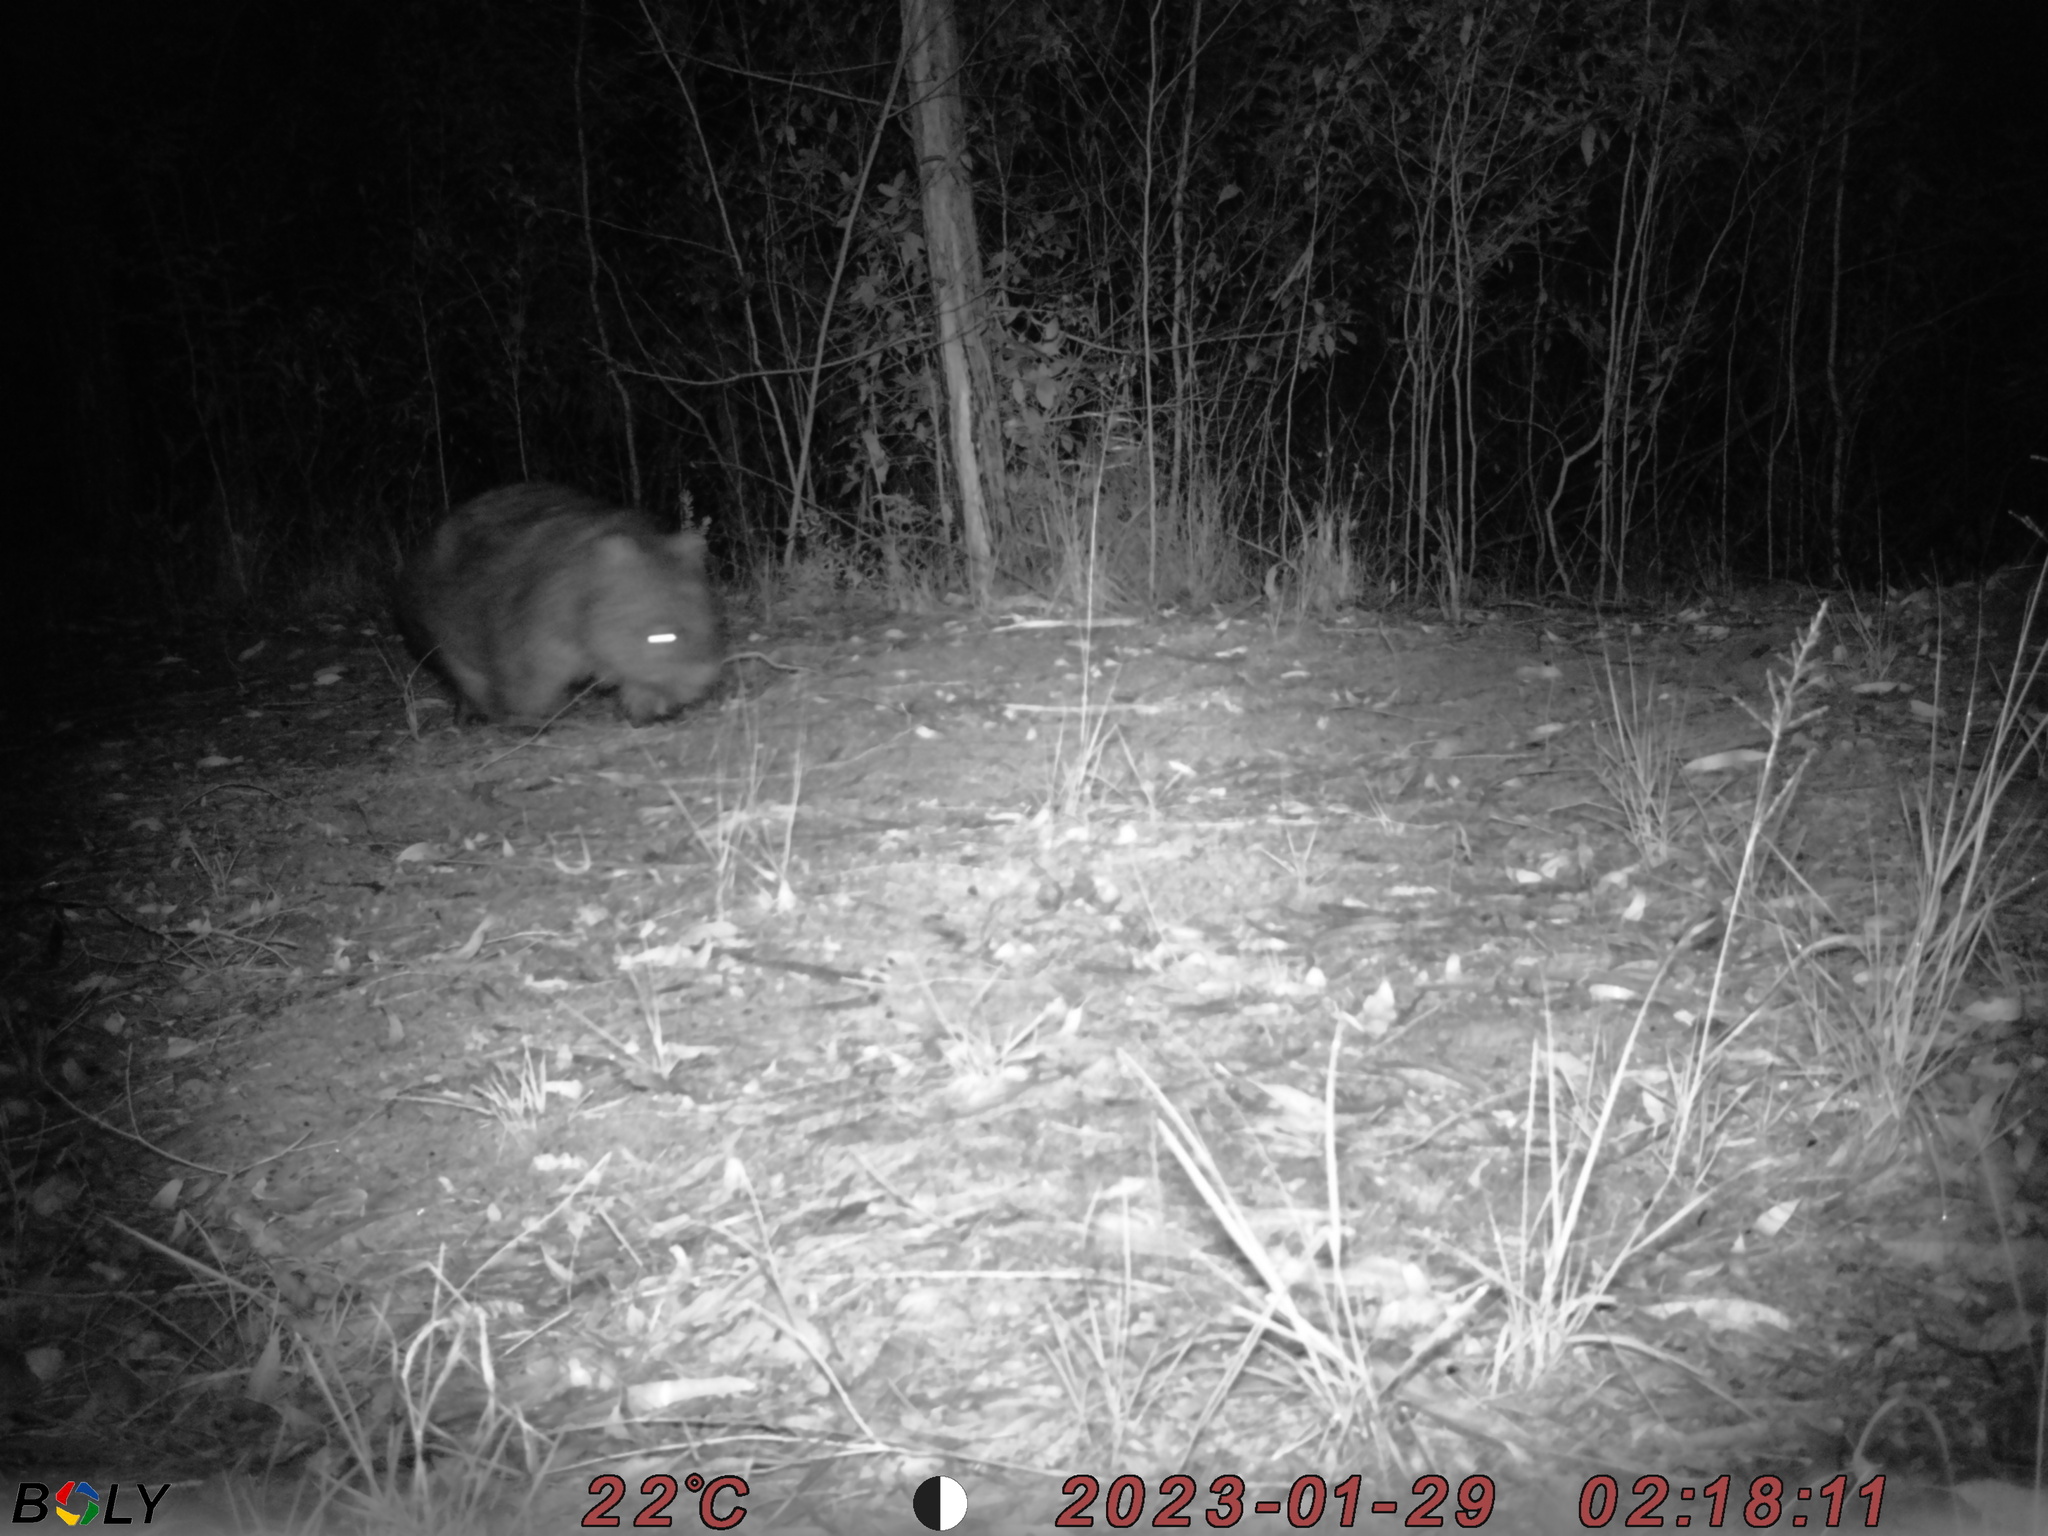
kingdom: Animalia
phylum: Chordata
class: Mammalia
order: Diprotodontia
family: Vombatidae
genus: Vombatus
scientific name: Vombatus ursinus
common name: Common wombat
